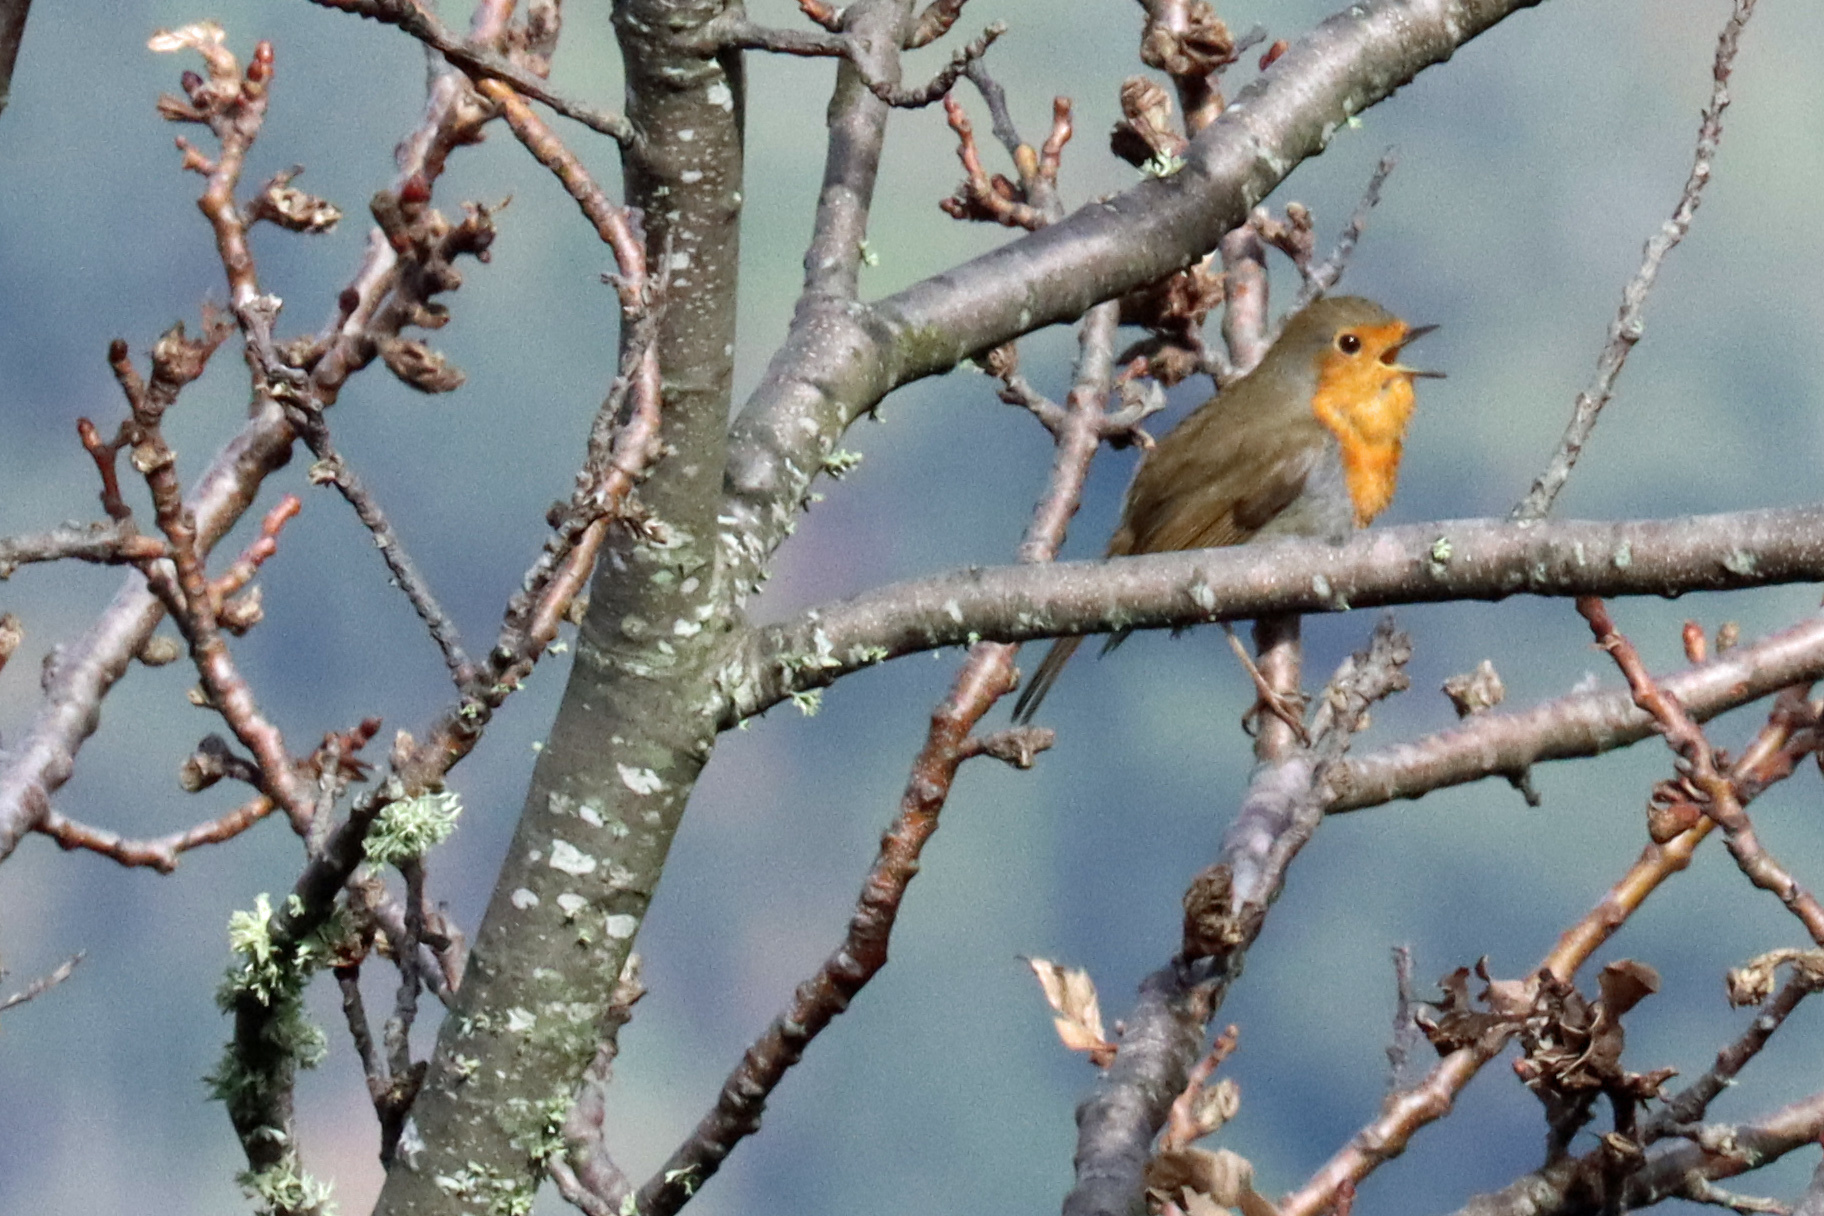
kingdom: Animalia
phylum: Chordata
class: Aves
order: Passeriformes
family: Muscicapidae
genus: Erithacus
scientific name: Erithacus rubecula
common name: European robin
